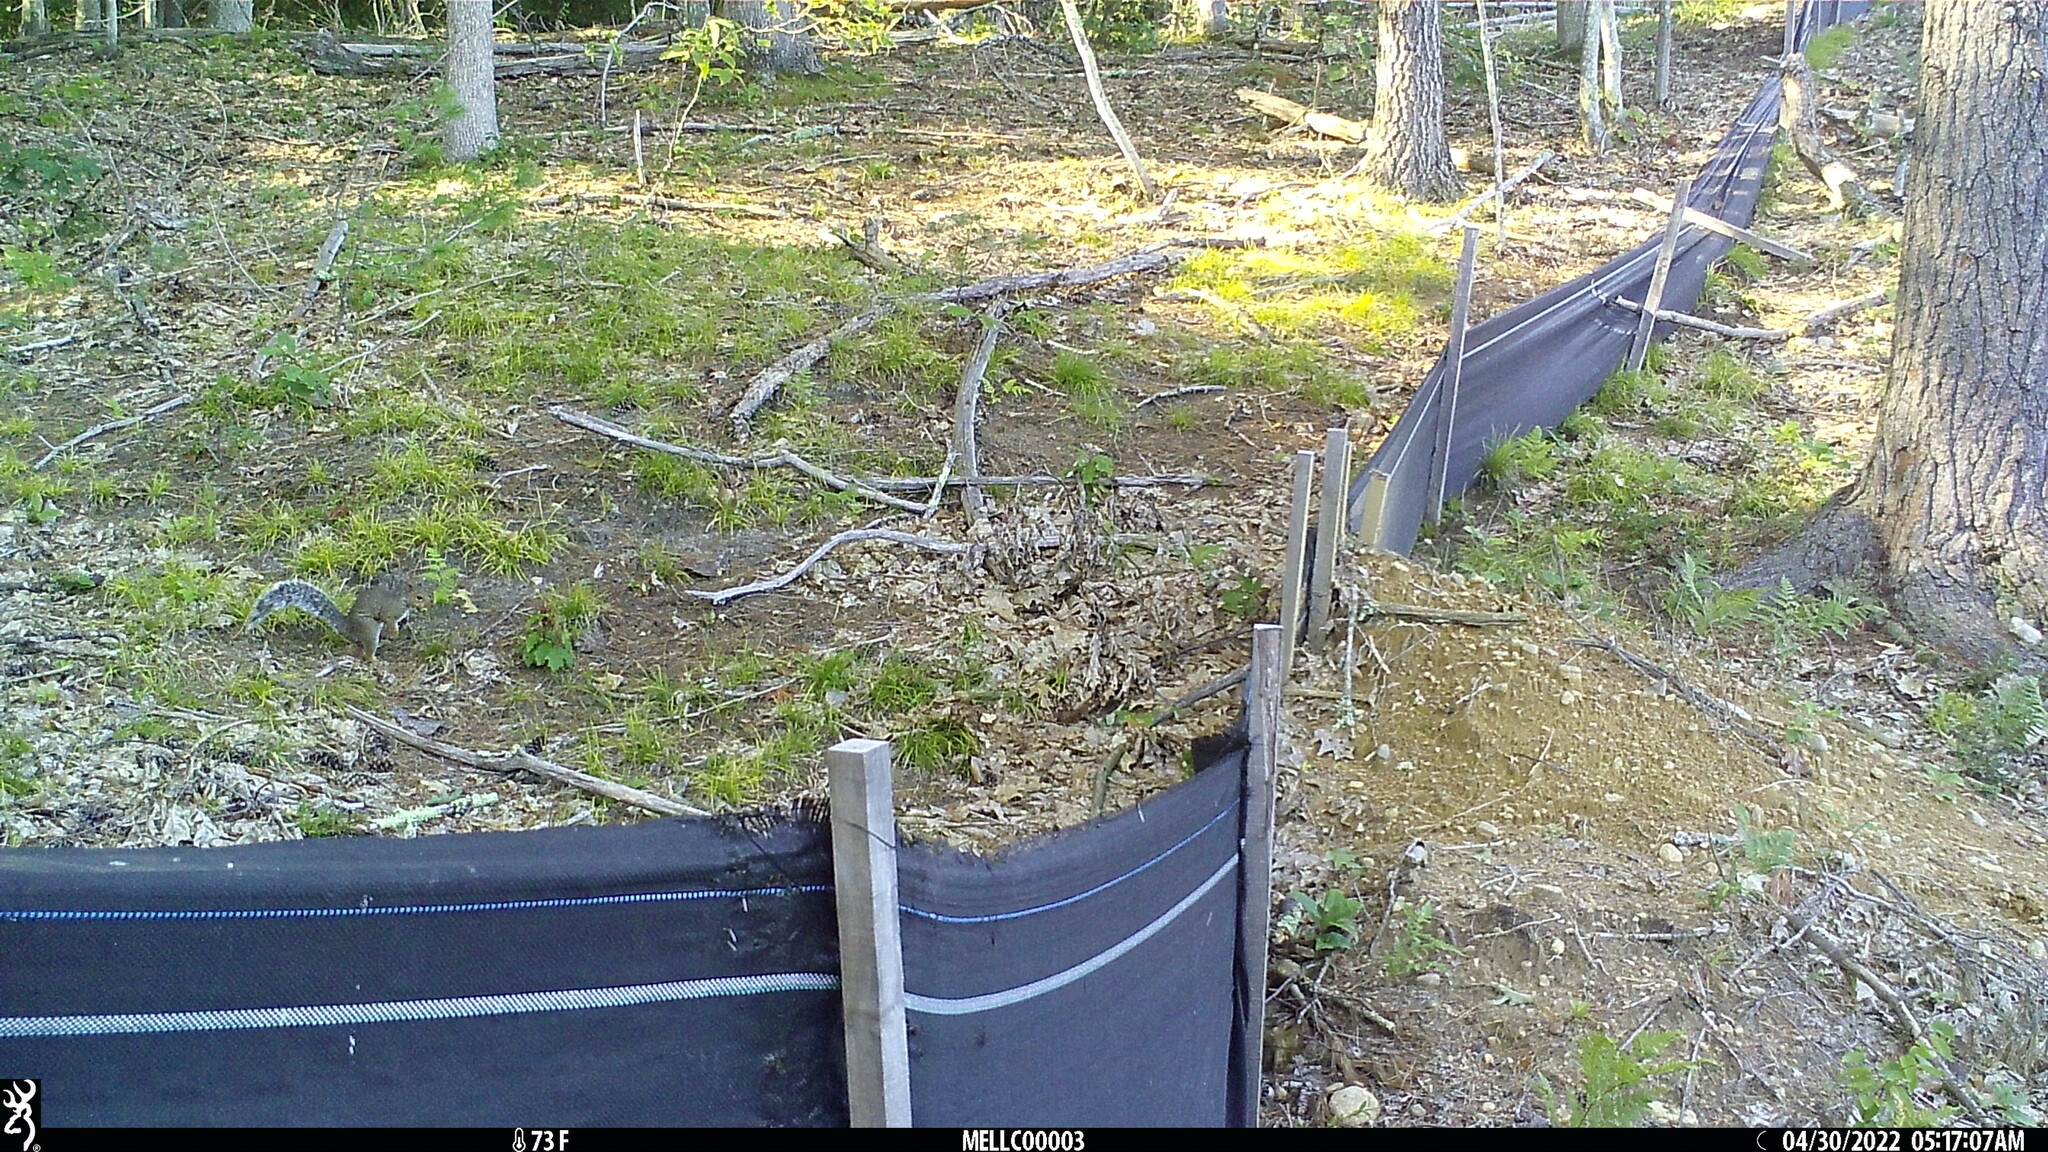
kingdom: Animalia
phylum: Chordata
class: Mammalia
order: Rodentia
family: Sciuridae
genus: Sciurus
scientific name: Sciurus carolinensis
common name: Eastern gray squirrel
